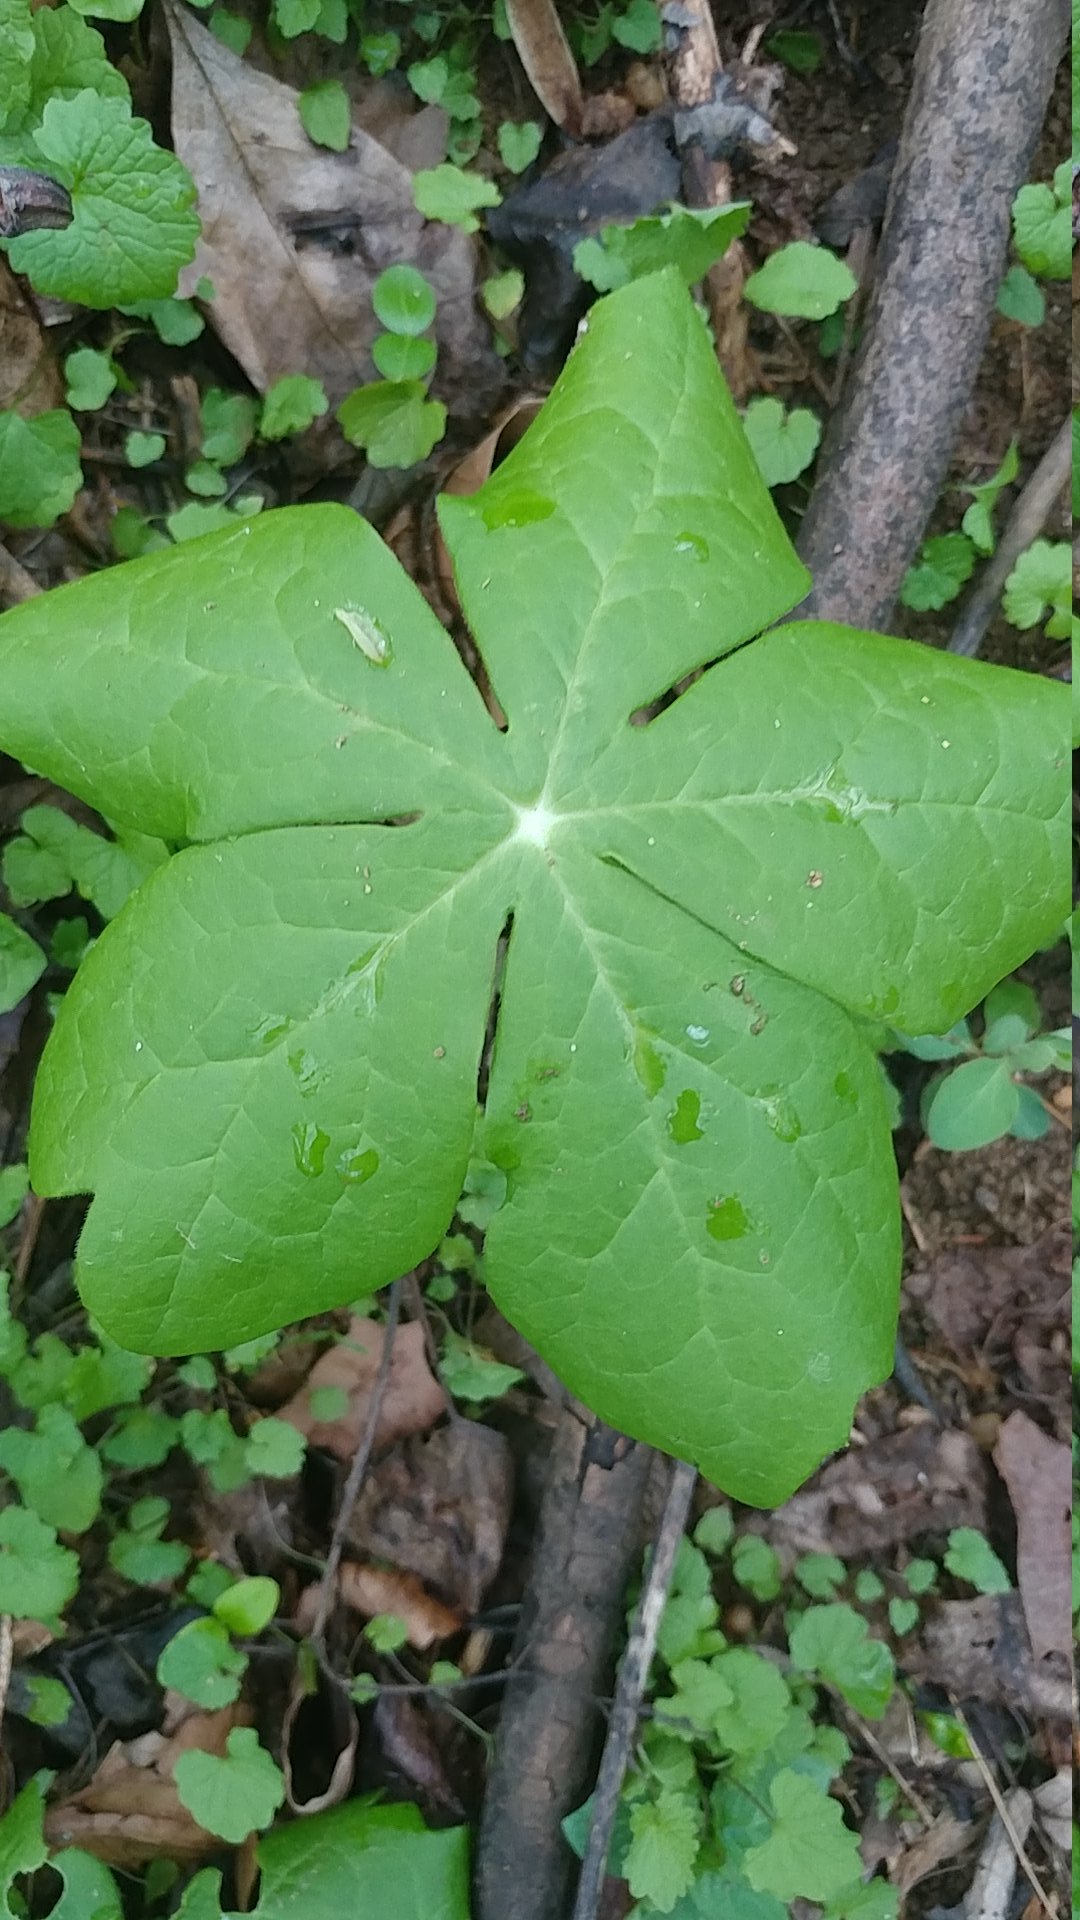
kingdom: Plantae
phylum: Tracheophyta
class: Magnoliopsida
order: Ranunculales
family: Berberidaceae
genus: Podophyllum
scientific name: Podophyllum peltatum
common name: Wild mandrake
